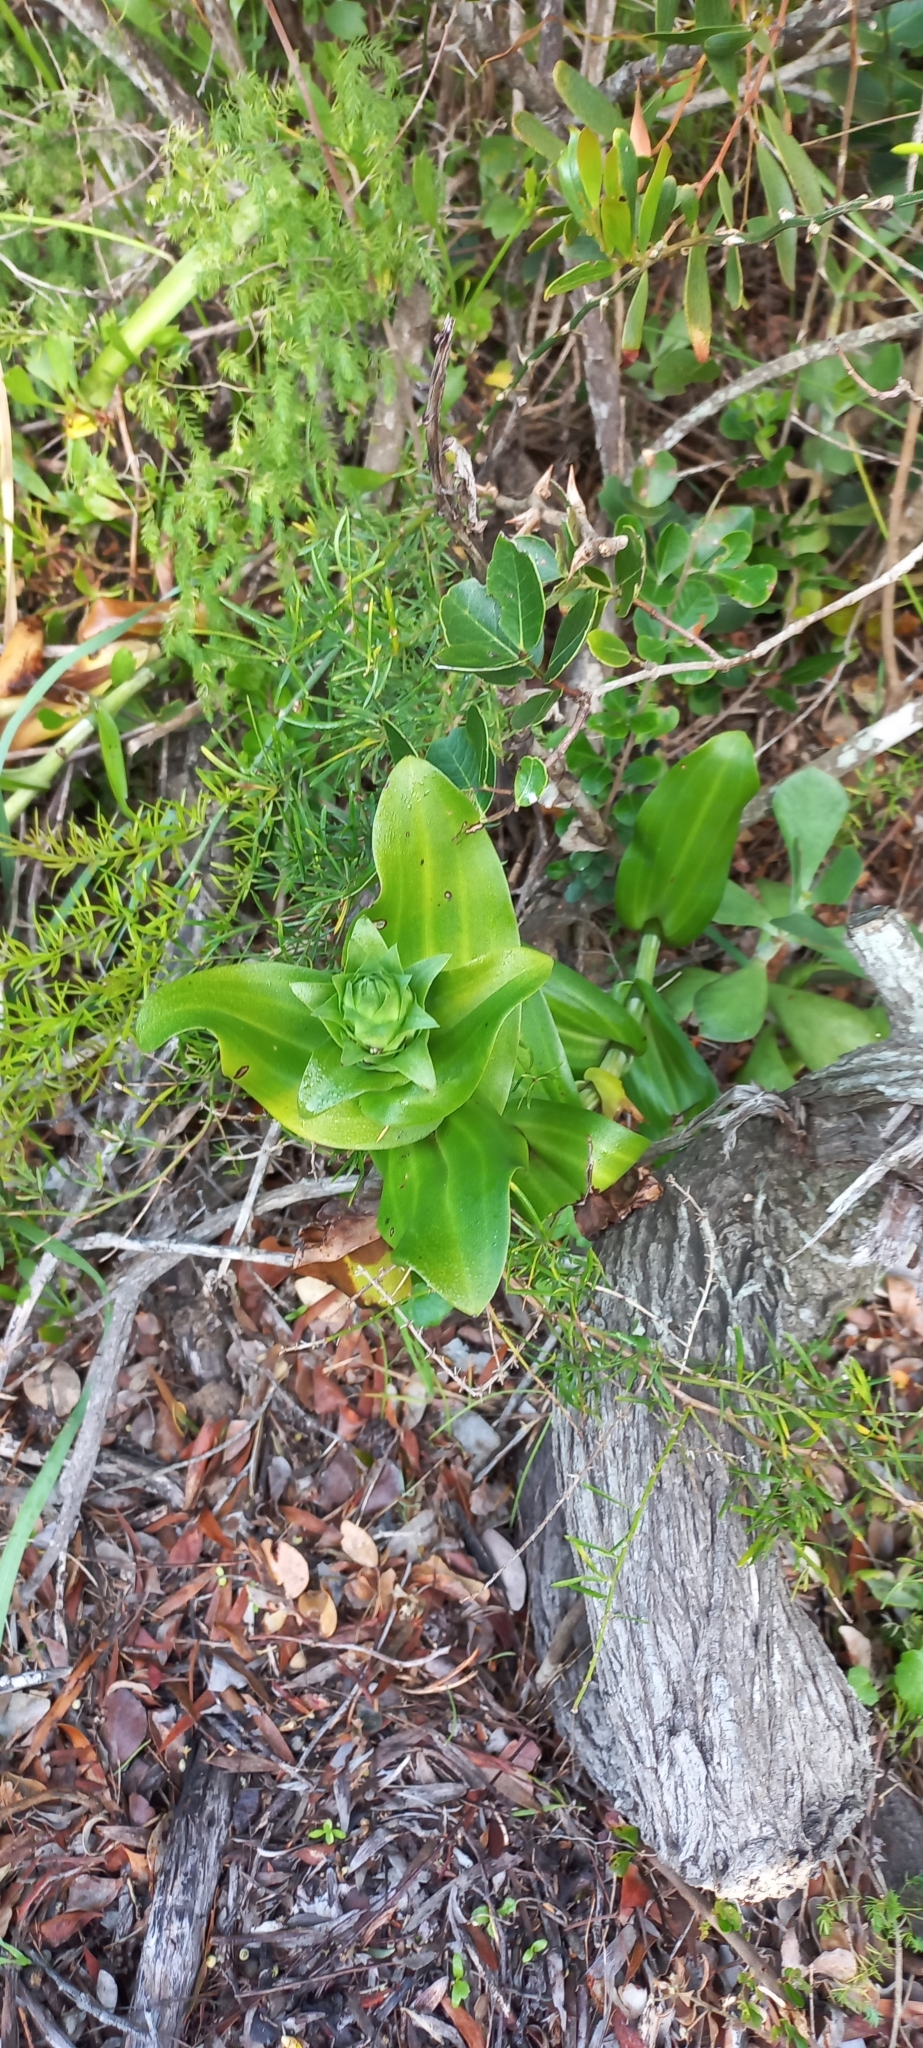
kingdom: Plantae
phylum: Tracheophyta
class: Liliopsida
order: Asparagales
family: Orchidaceae
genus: Bonatea
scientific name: Bonatea speciosa
